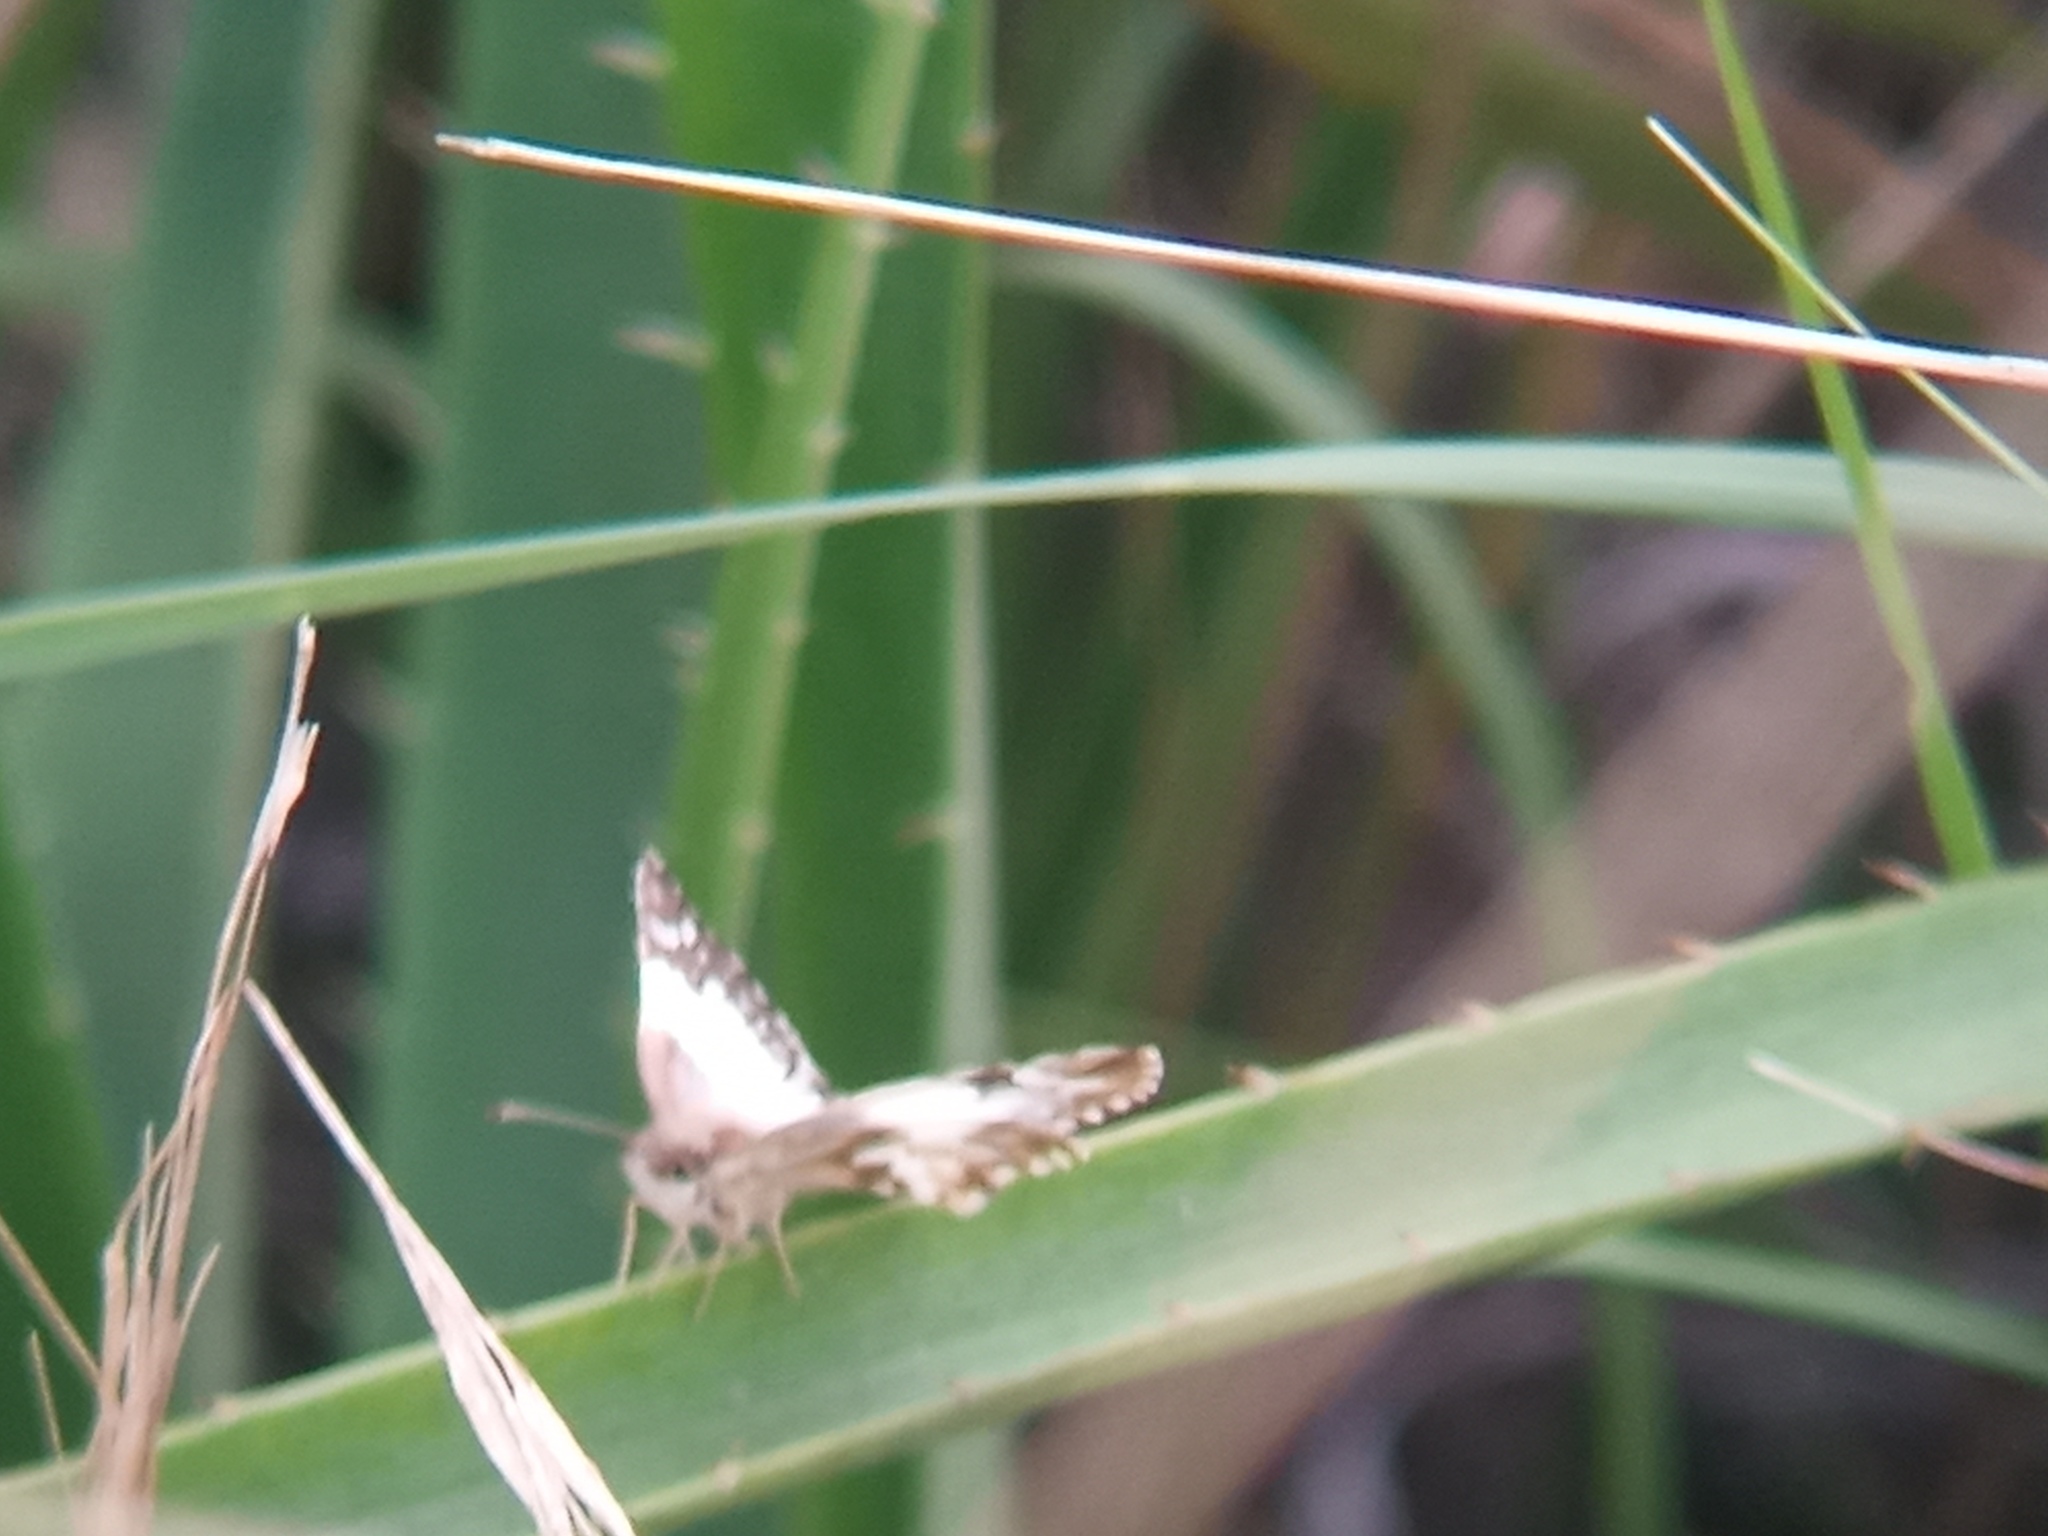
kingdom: Animalia
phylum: Arthropoda
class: Insecta
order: Lepidoptera
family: Hesperiidae
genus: Heliopetes
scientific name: Heliopetes omrina
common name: Stained white-skipper
